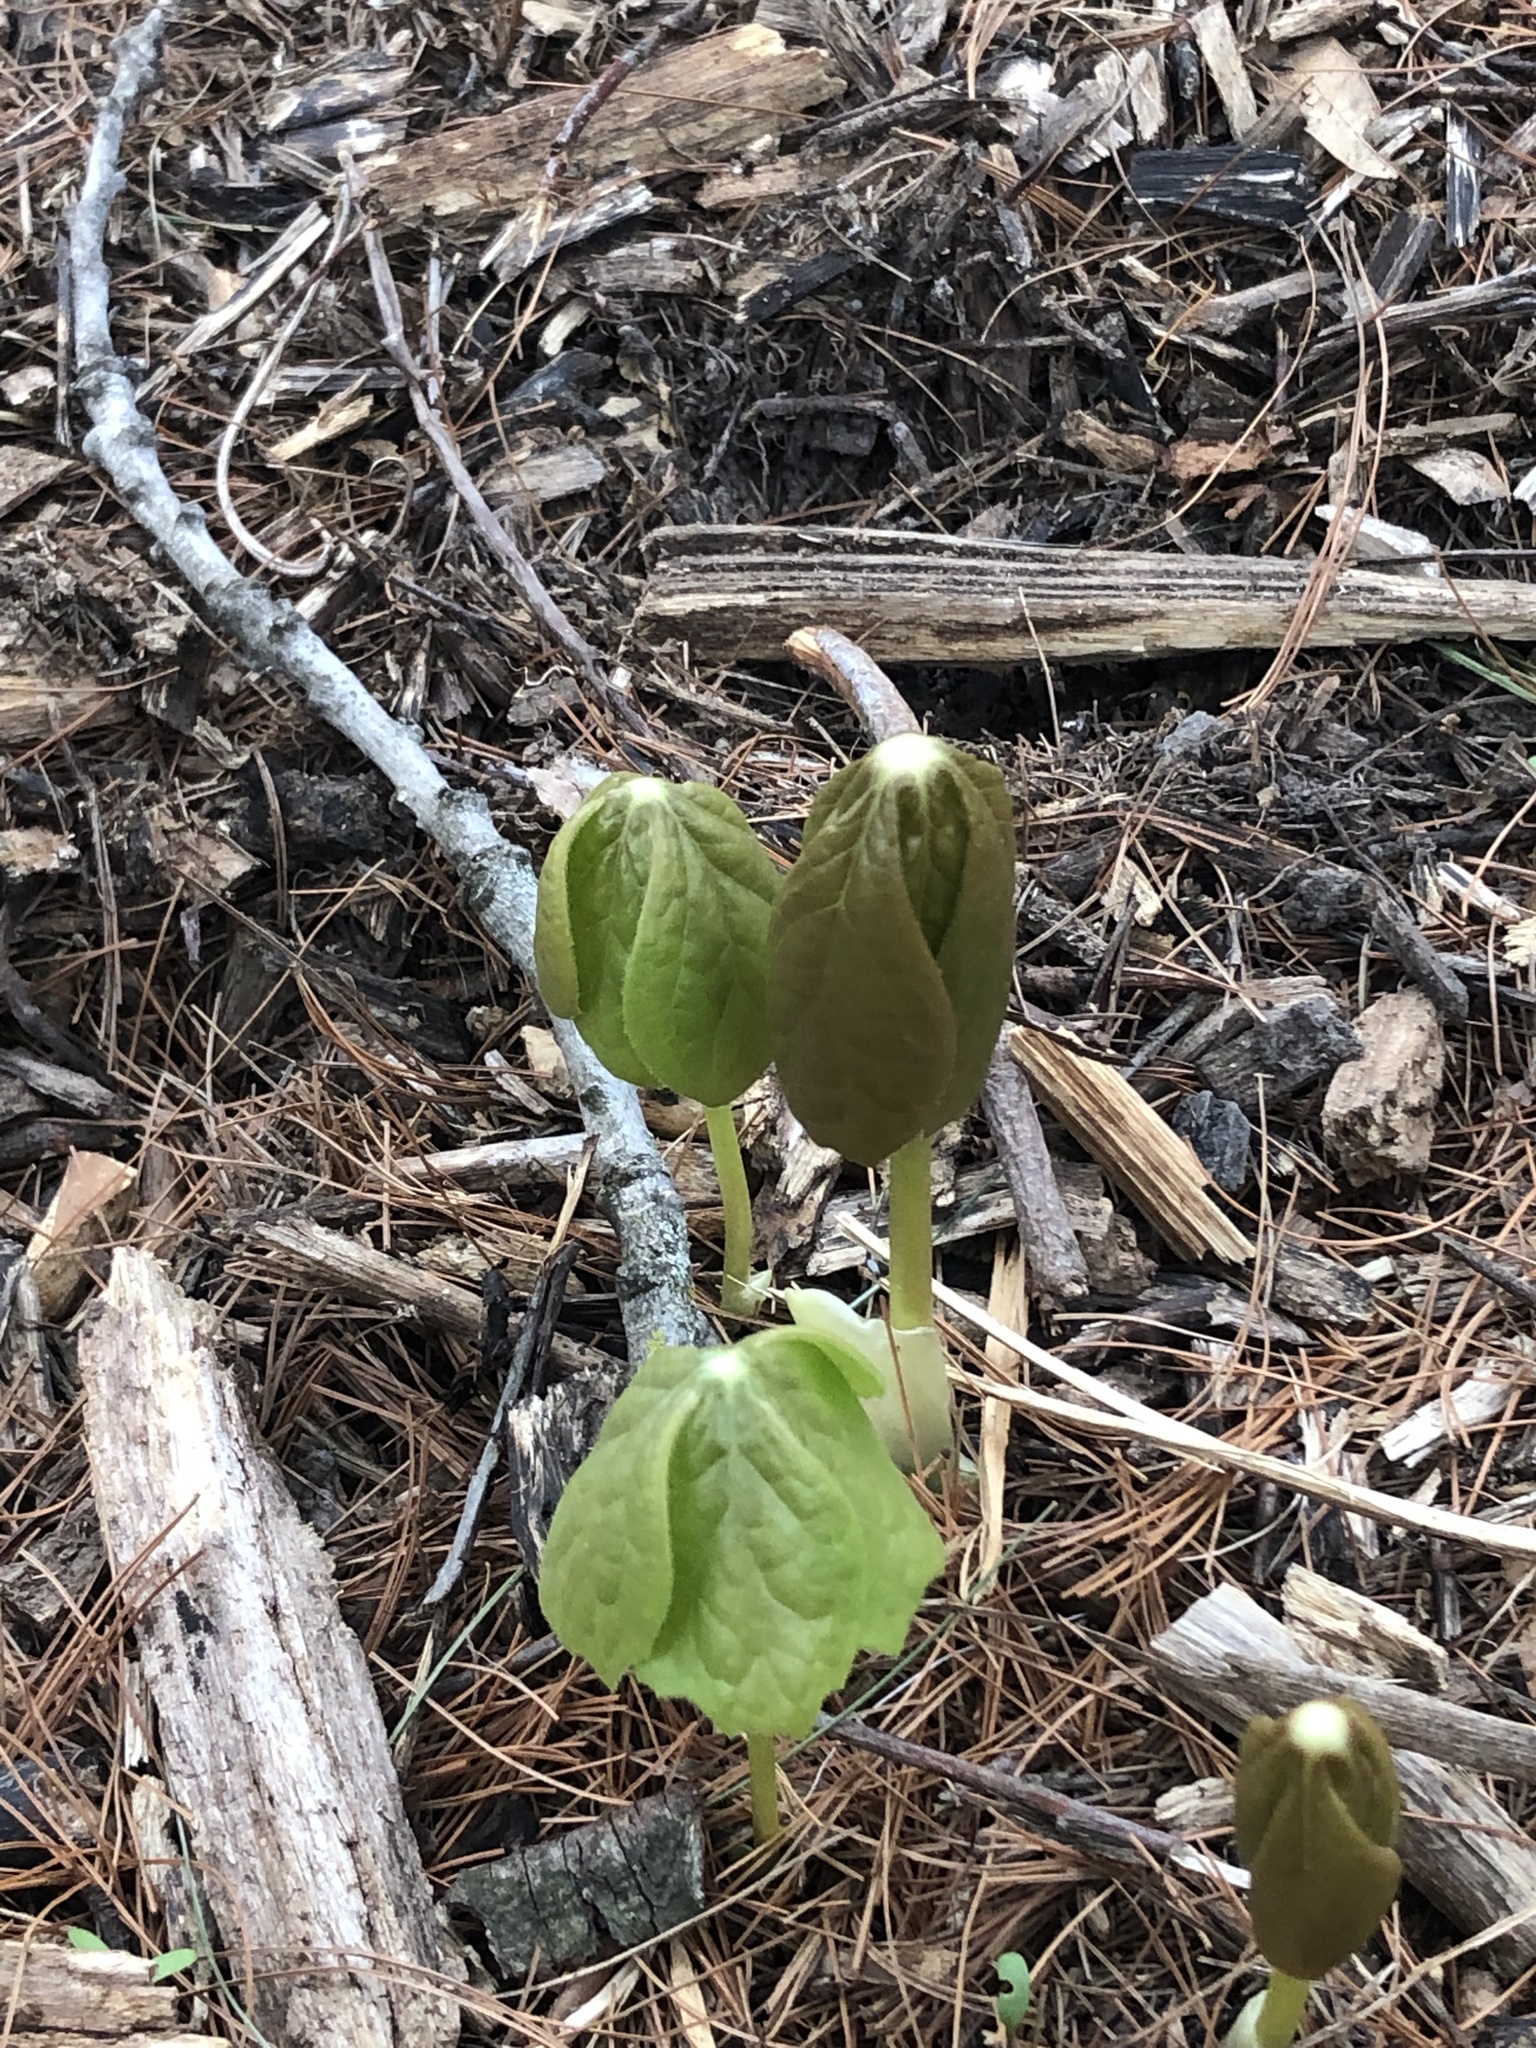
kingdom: Plantae
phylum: Tracheophyta
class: Magnoliopsida
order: Ranunculales
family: Berberidaceae
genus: Podophyllum
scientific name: Podophyllum peltatum
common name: Wild mandrake
